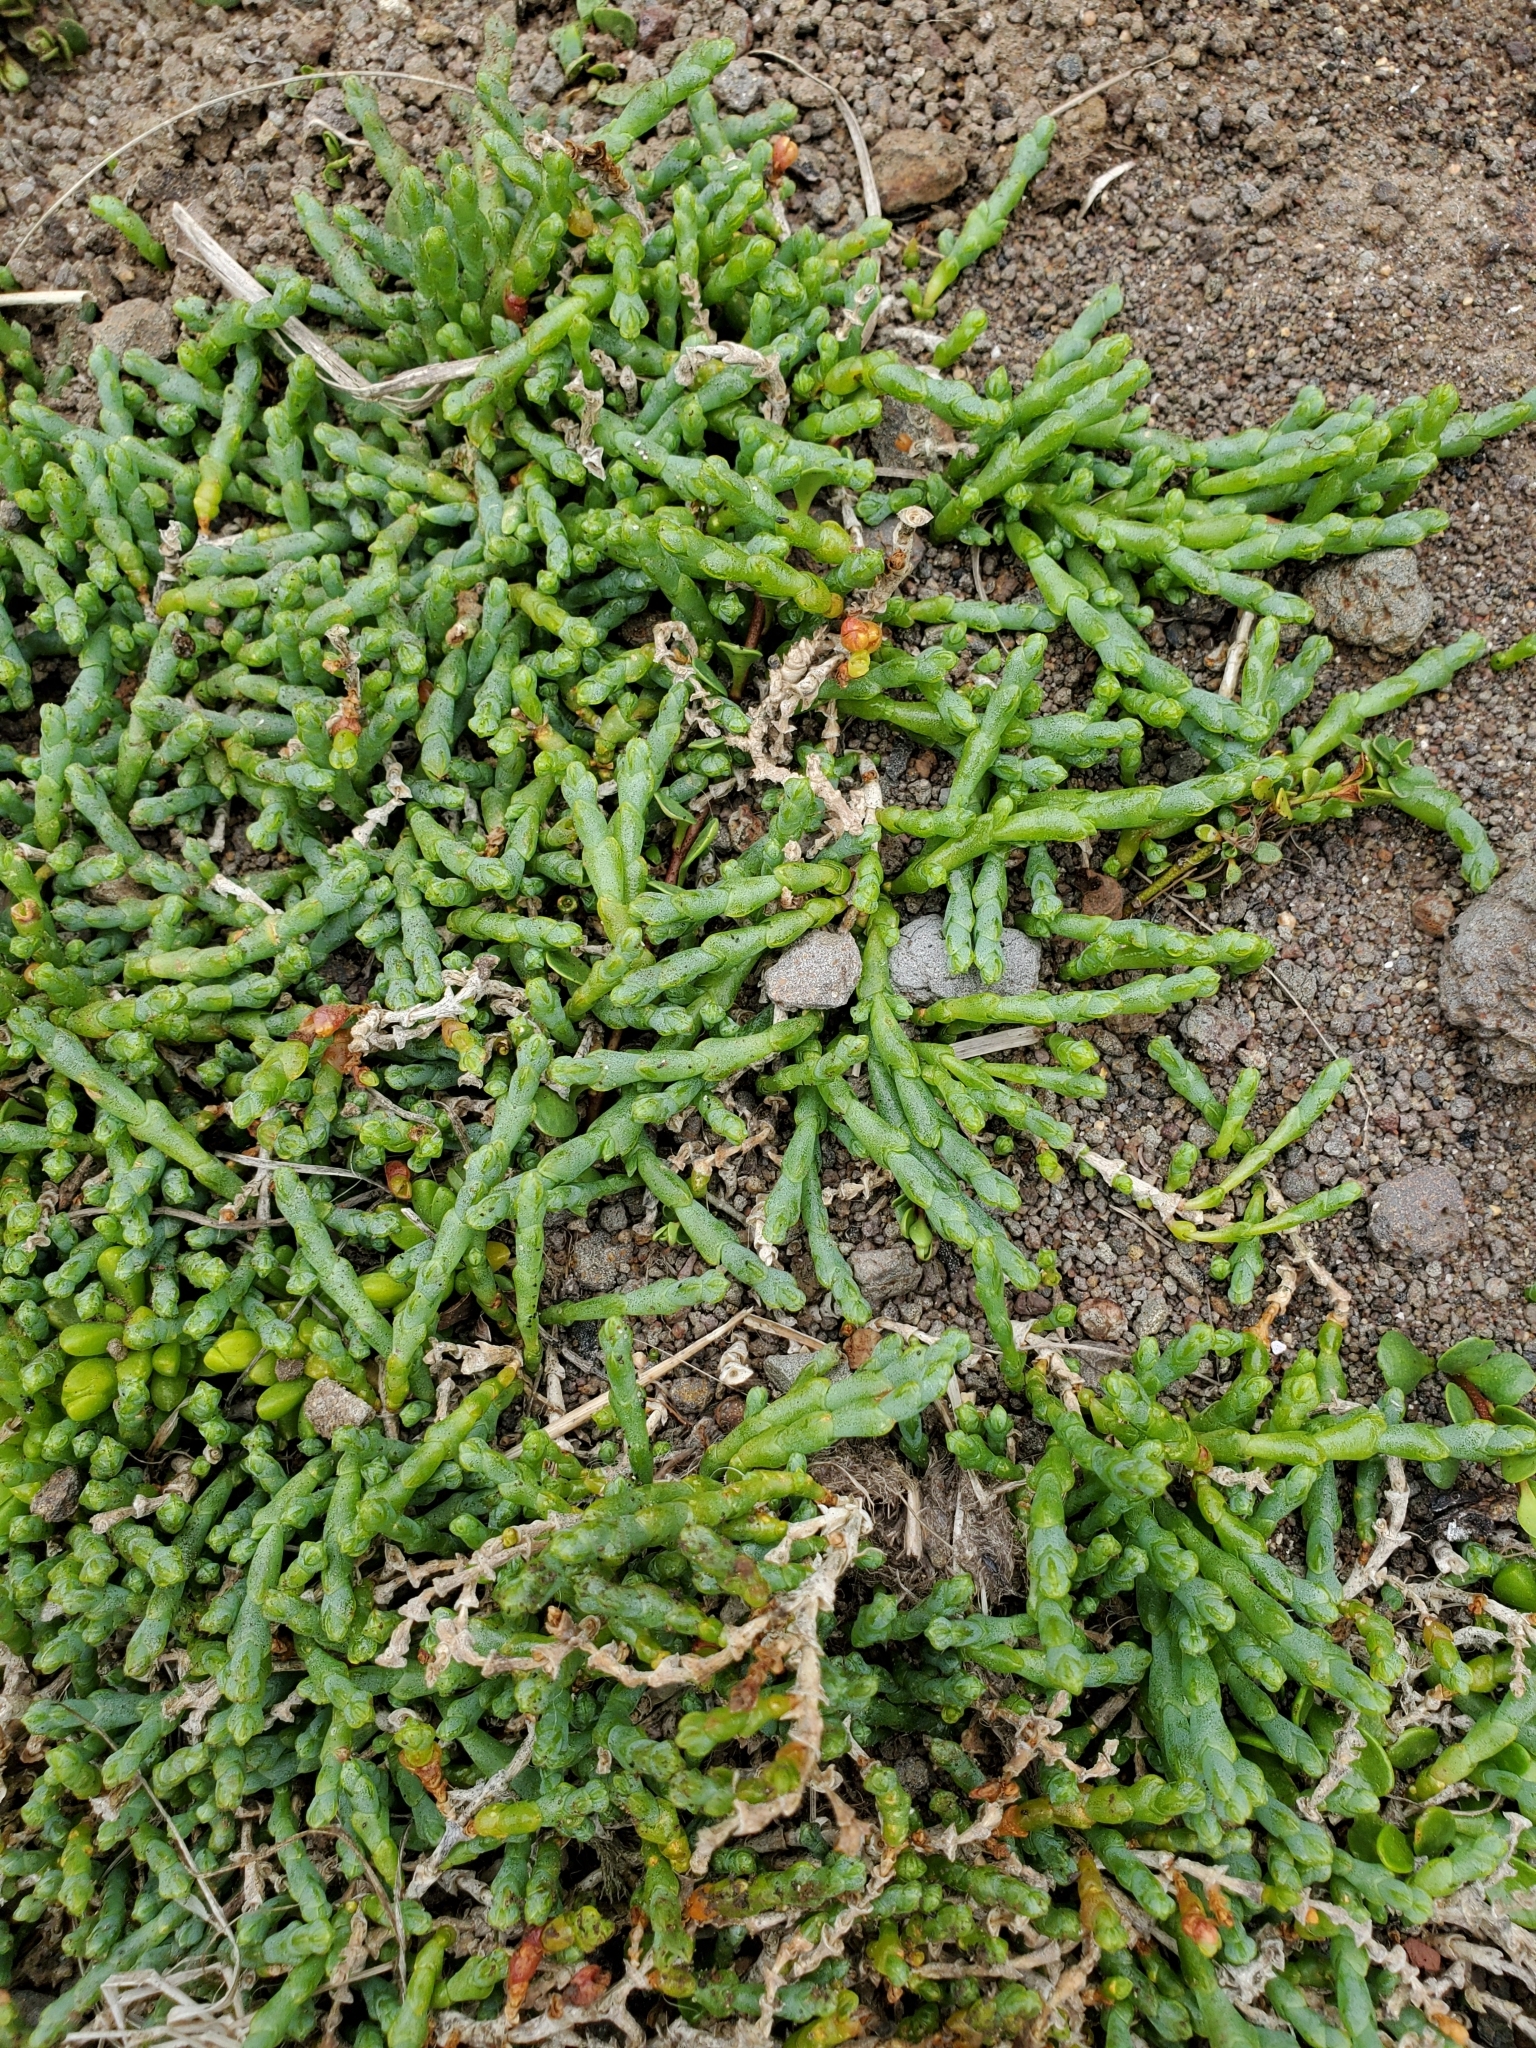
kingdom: Plantae
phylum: Tracheophyta
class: Magnoliopsida
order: Caryophyllales
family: Amaranthaceae
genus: Salicornia
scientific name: Salicornia quinqueflora
